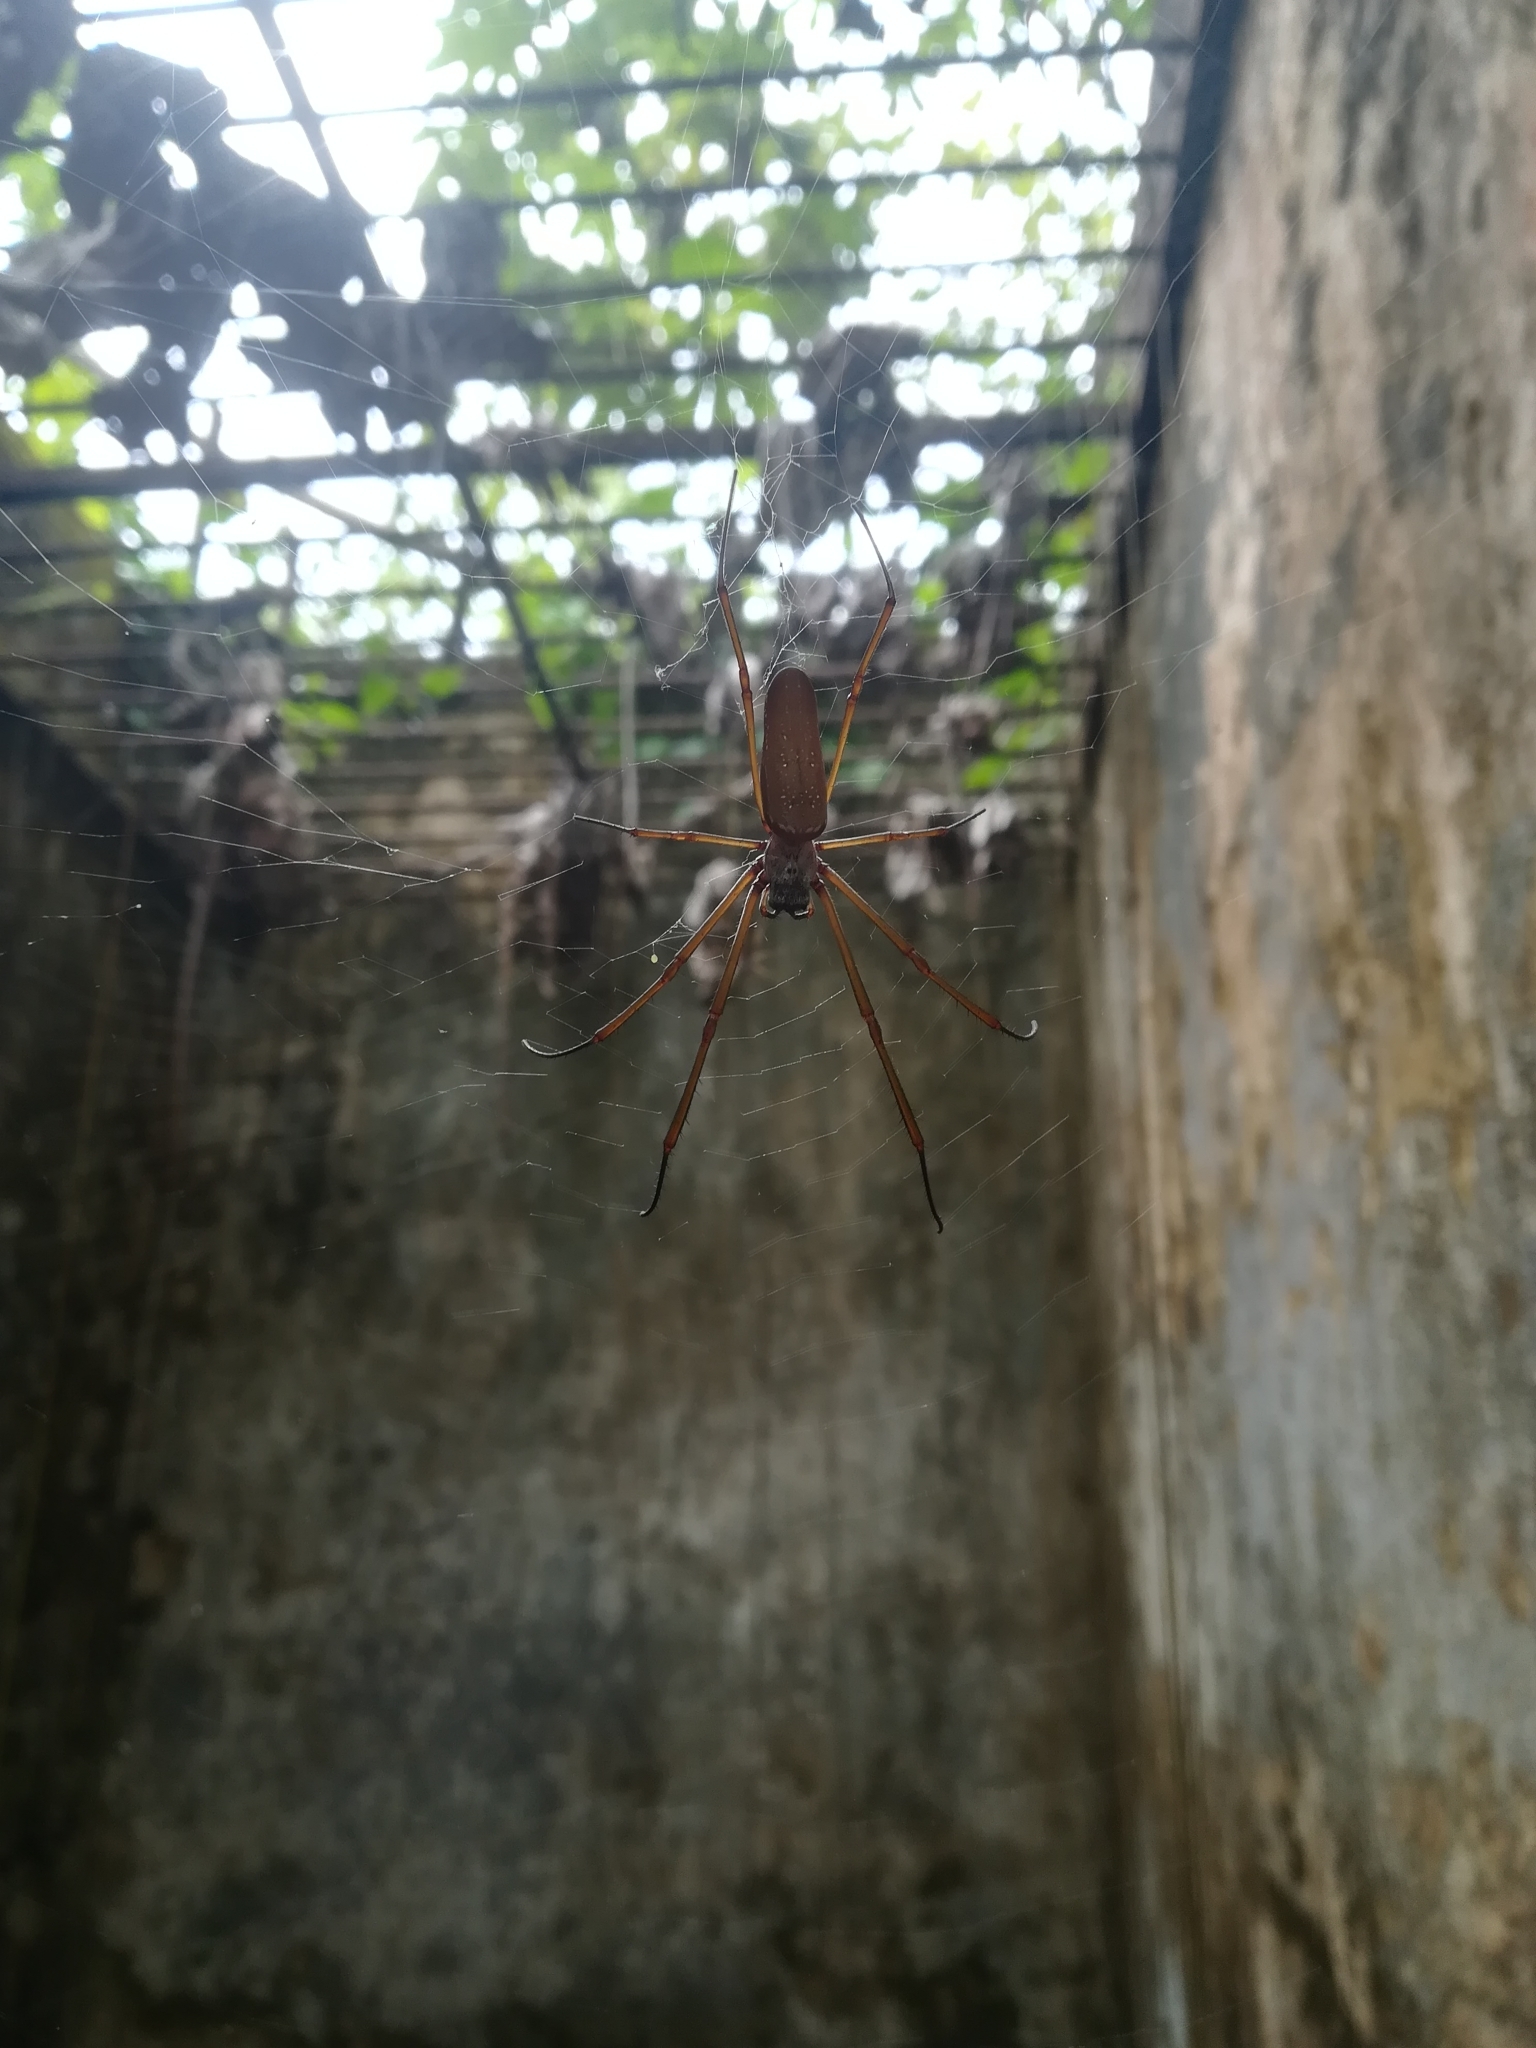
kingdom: Animalia
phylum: Arthropoda
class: Arachnida
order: Araneae
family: Araneidae
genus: Nephila
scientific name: Nephila cornuta
